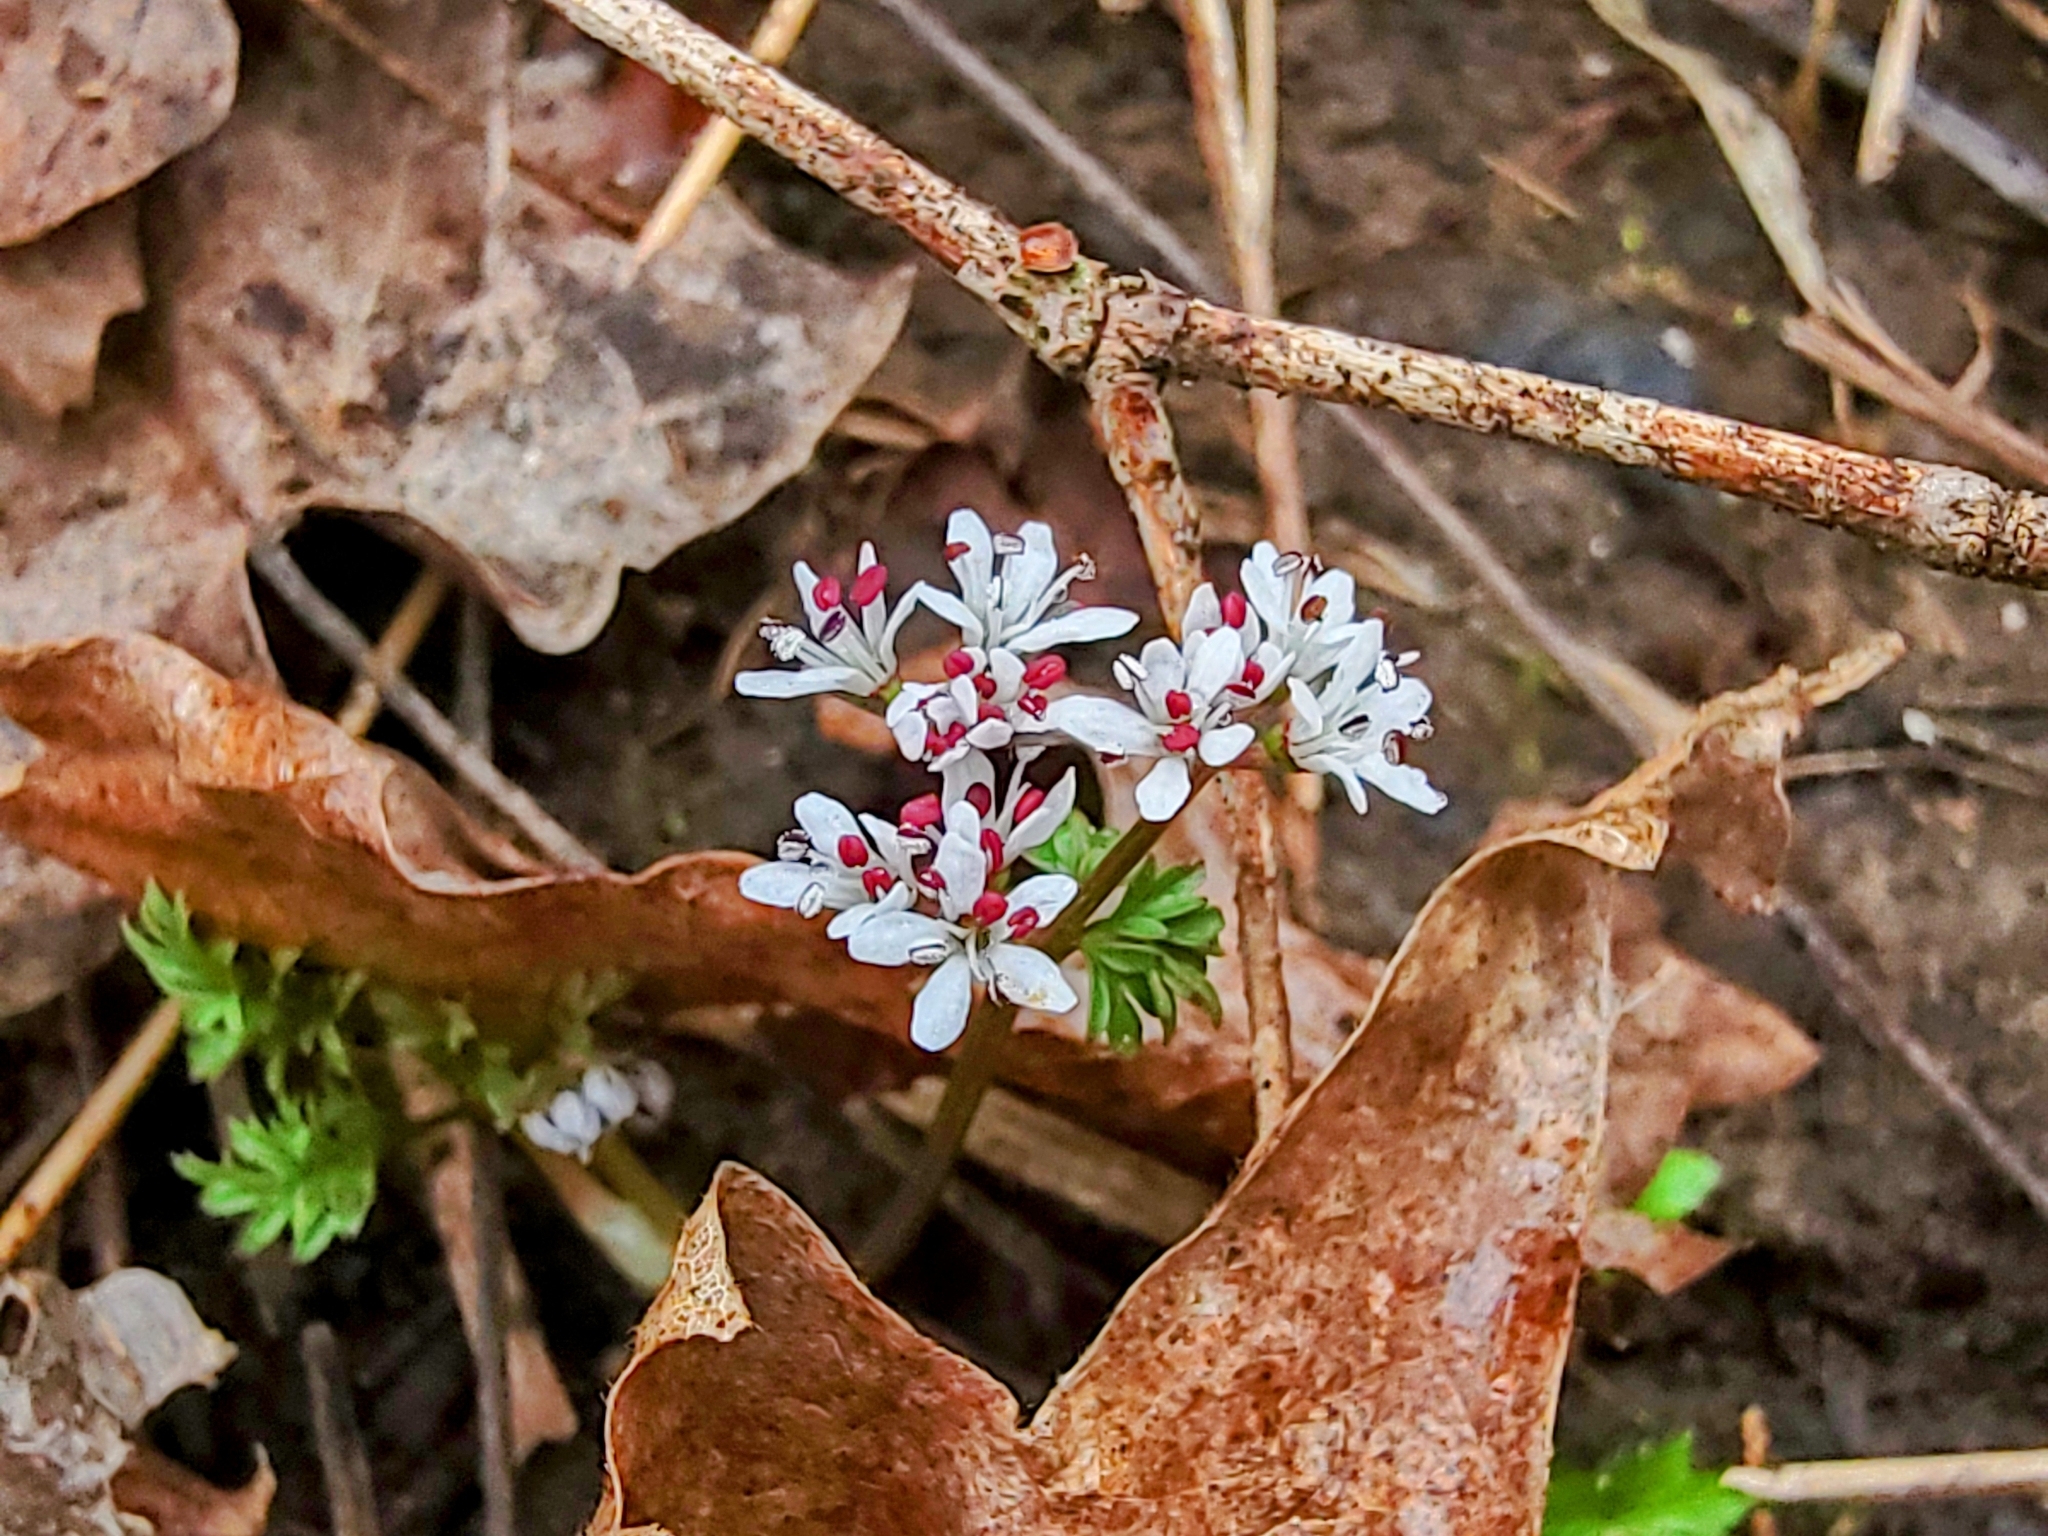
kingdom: Plantae
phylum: Tracheophyta
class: Magnoliopsida
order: Apiales
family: Apiaceae
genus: Erigenia
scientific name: Erigenia bulbosa
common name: Pepper-and-salt
